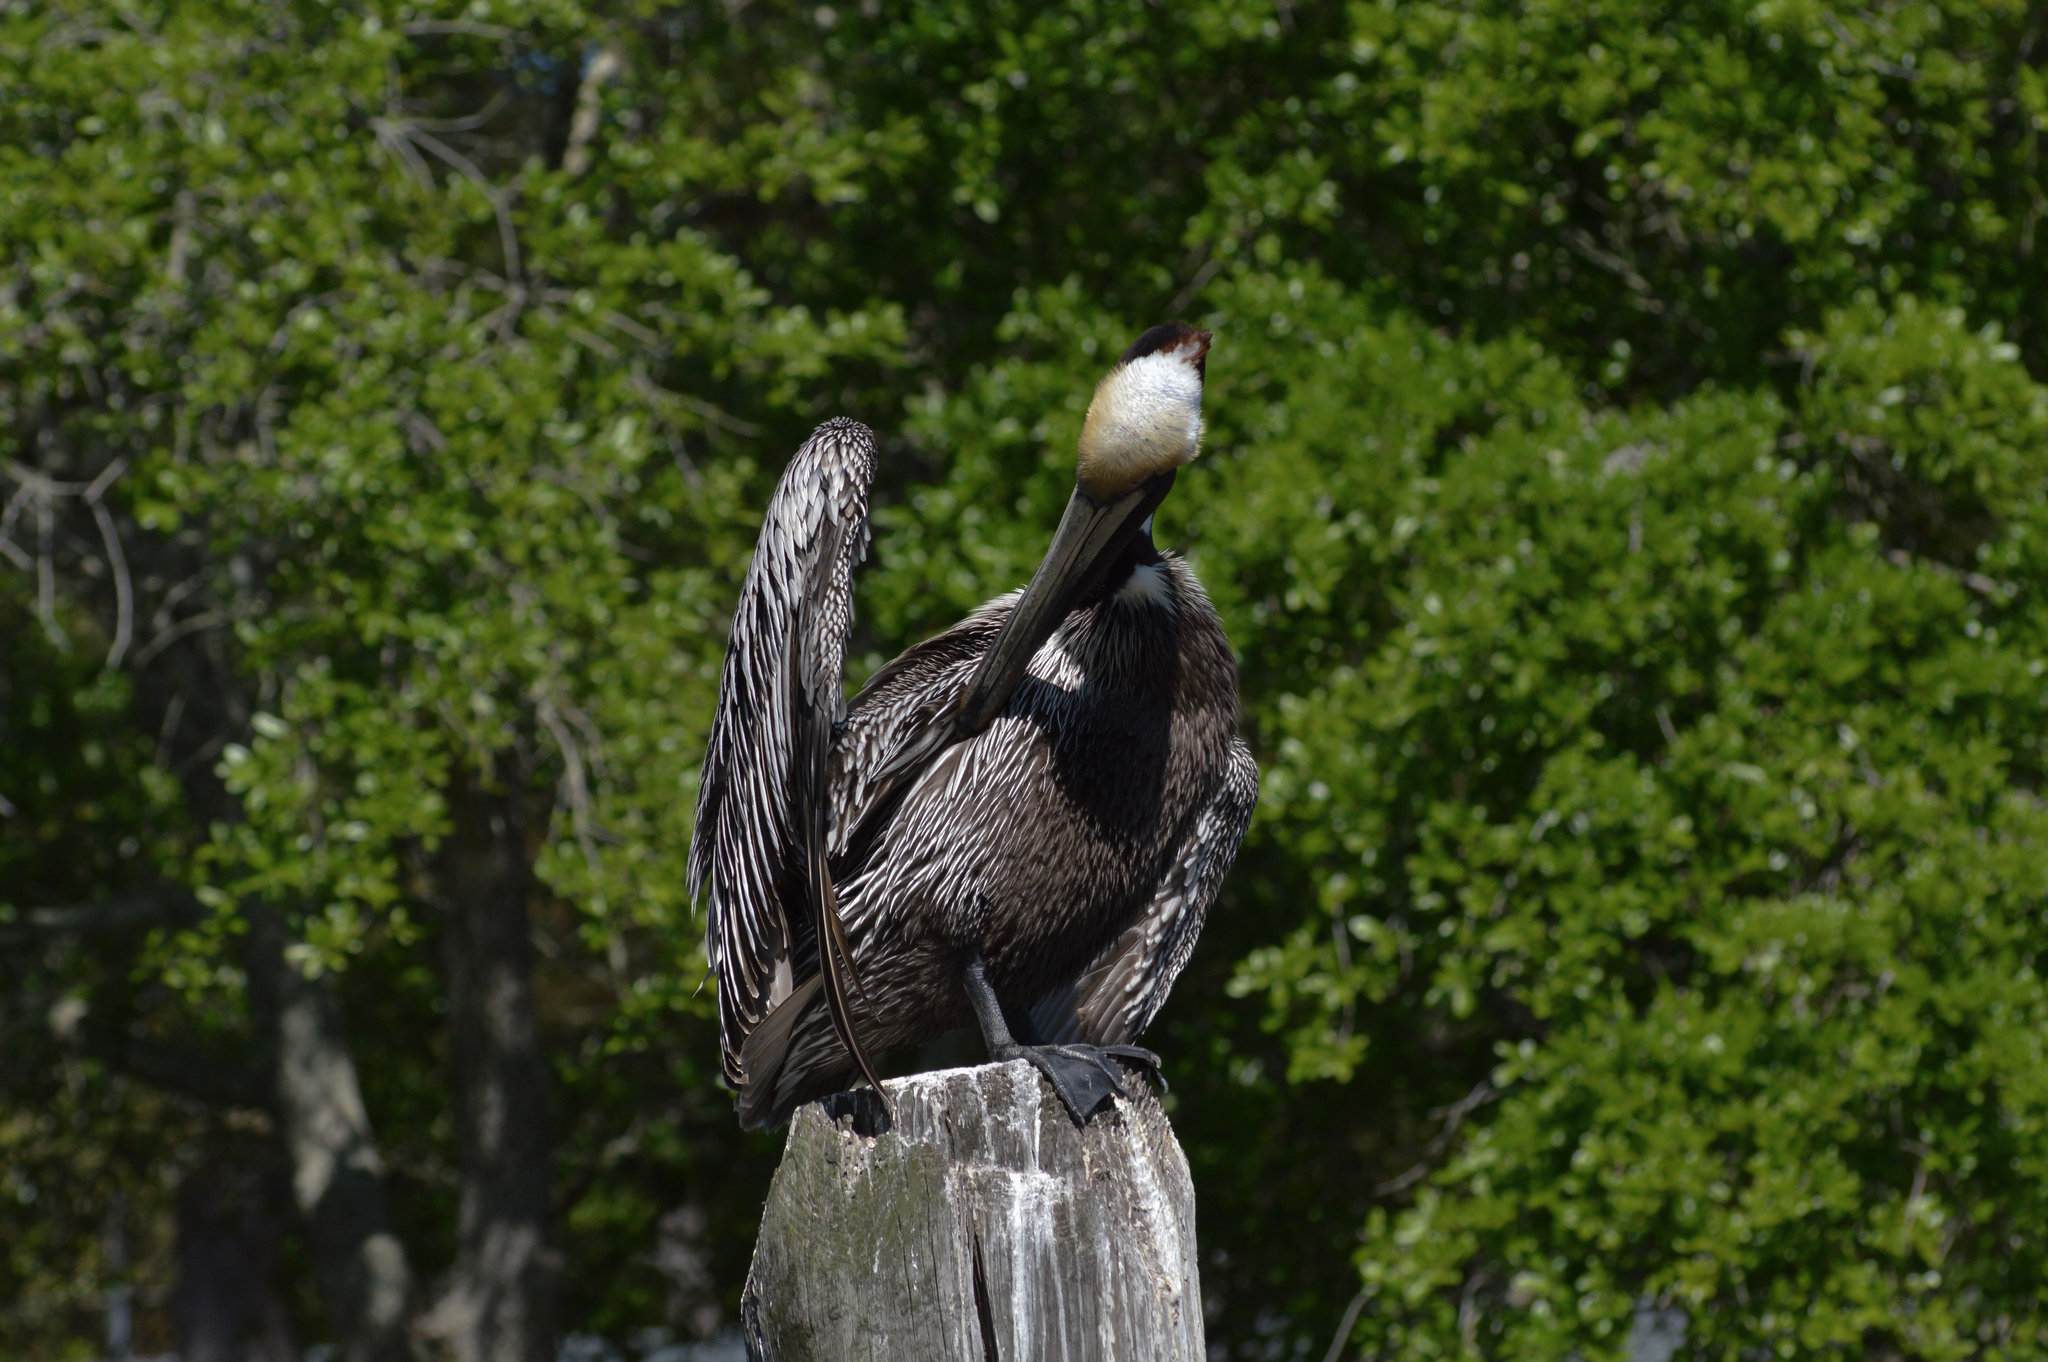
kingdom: Animalia
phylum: Chordata
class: Aves
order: Pelecaniformes
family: Pelecanidae
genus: Pelecanus
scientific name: Pelecanus occidentalis
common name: Brown pelican
